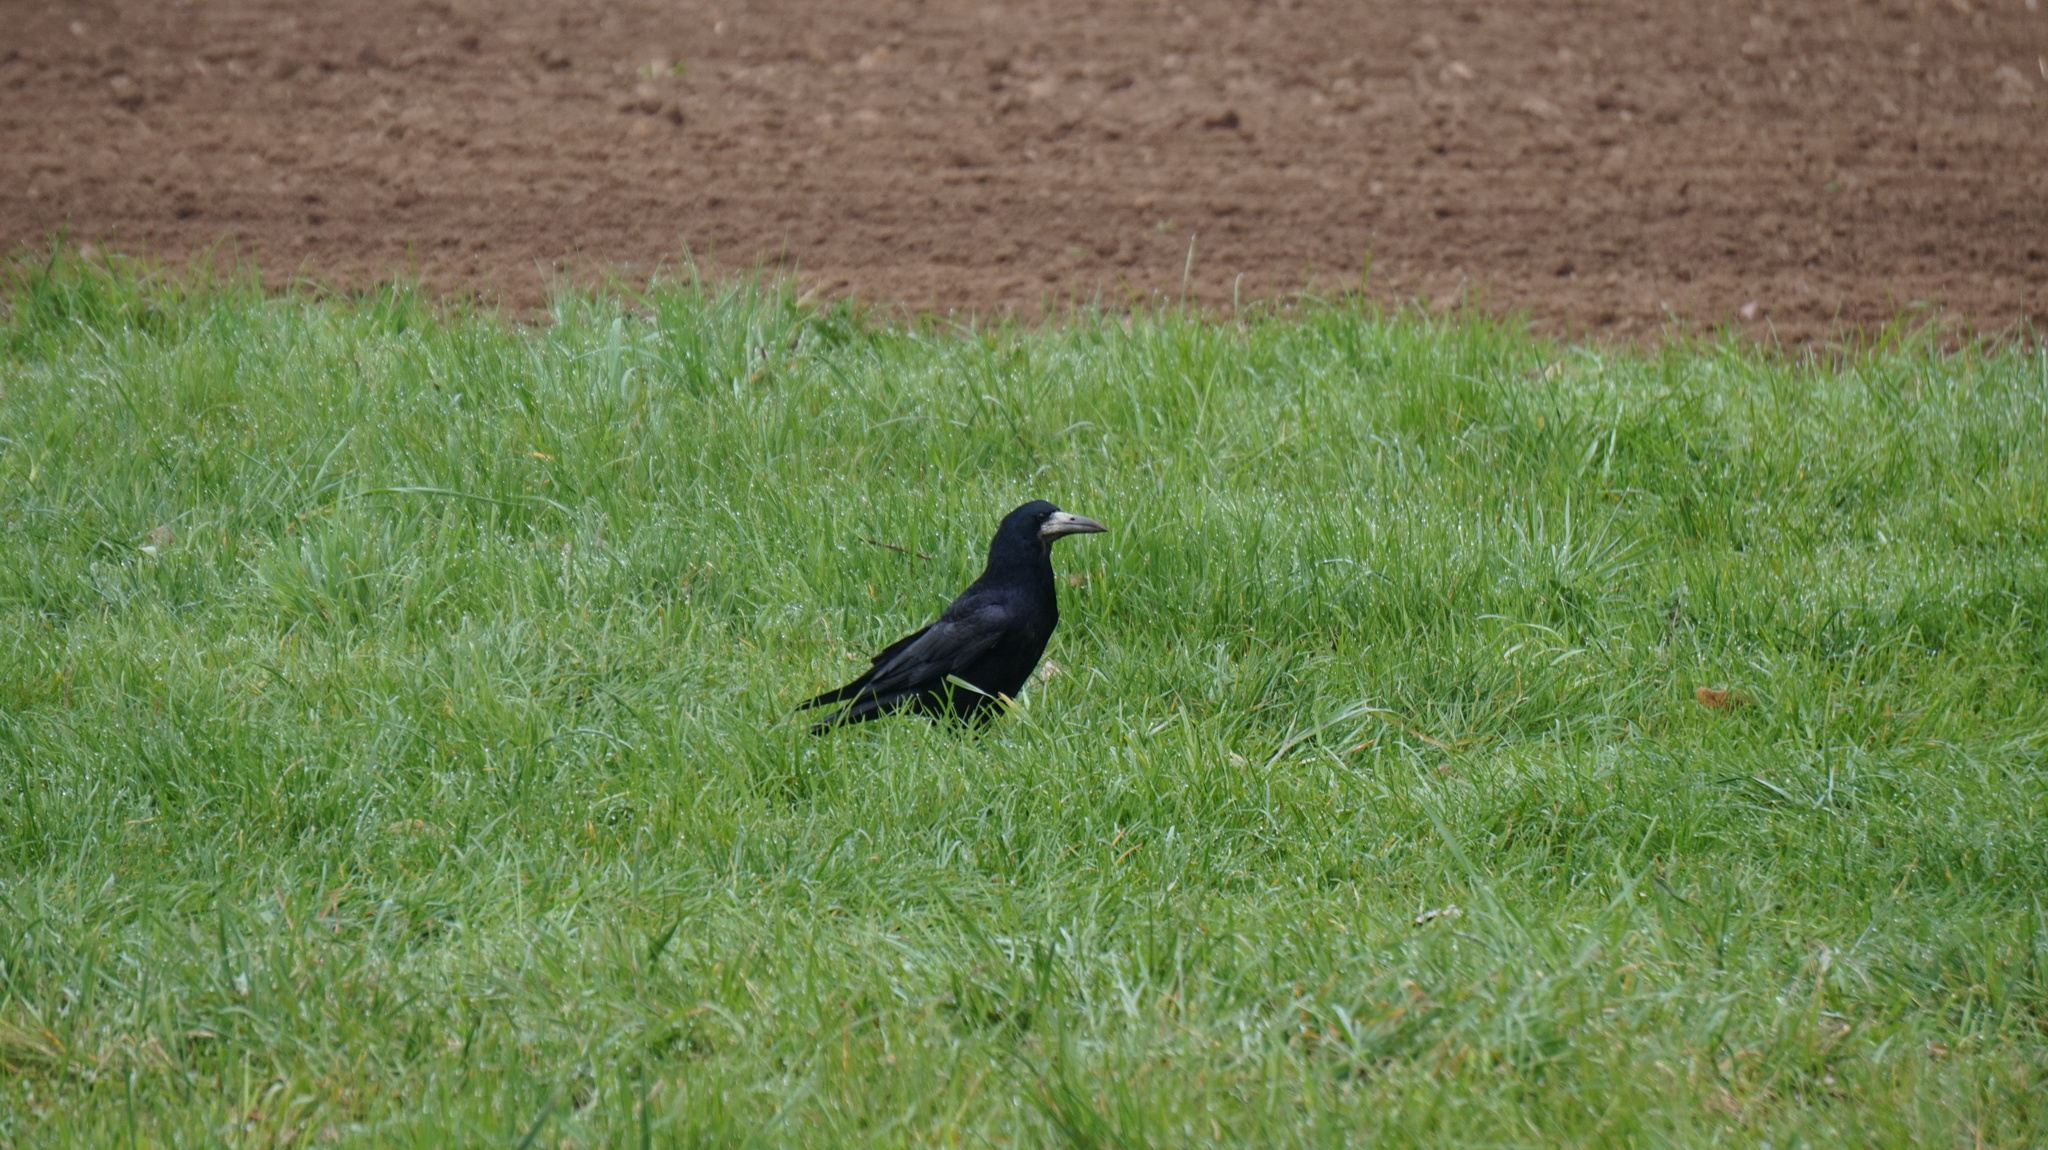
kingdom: Animalia
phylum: Chordata
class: Aves
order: Passeriformes
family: Corvidae
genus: Corvus
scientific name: Corvus frugilegus
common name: Rook
